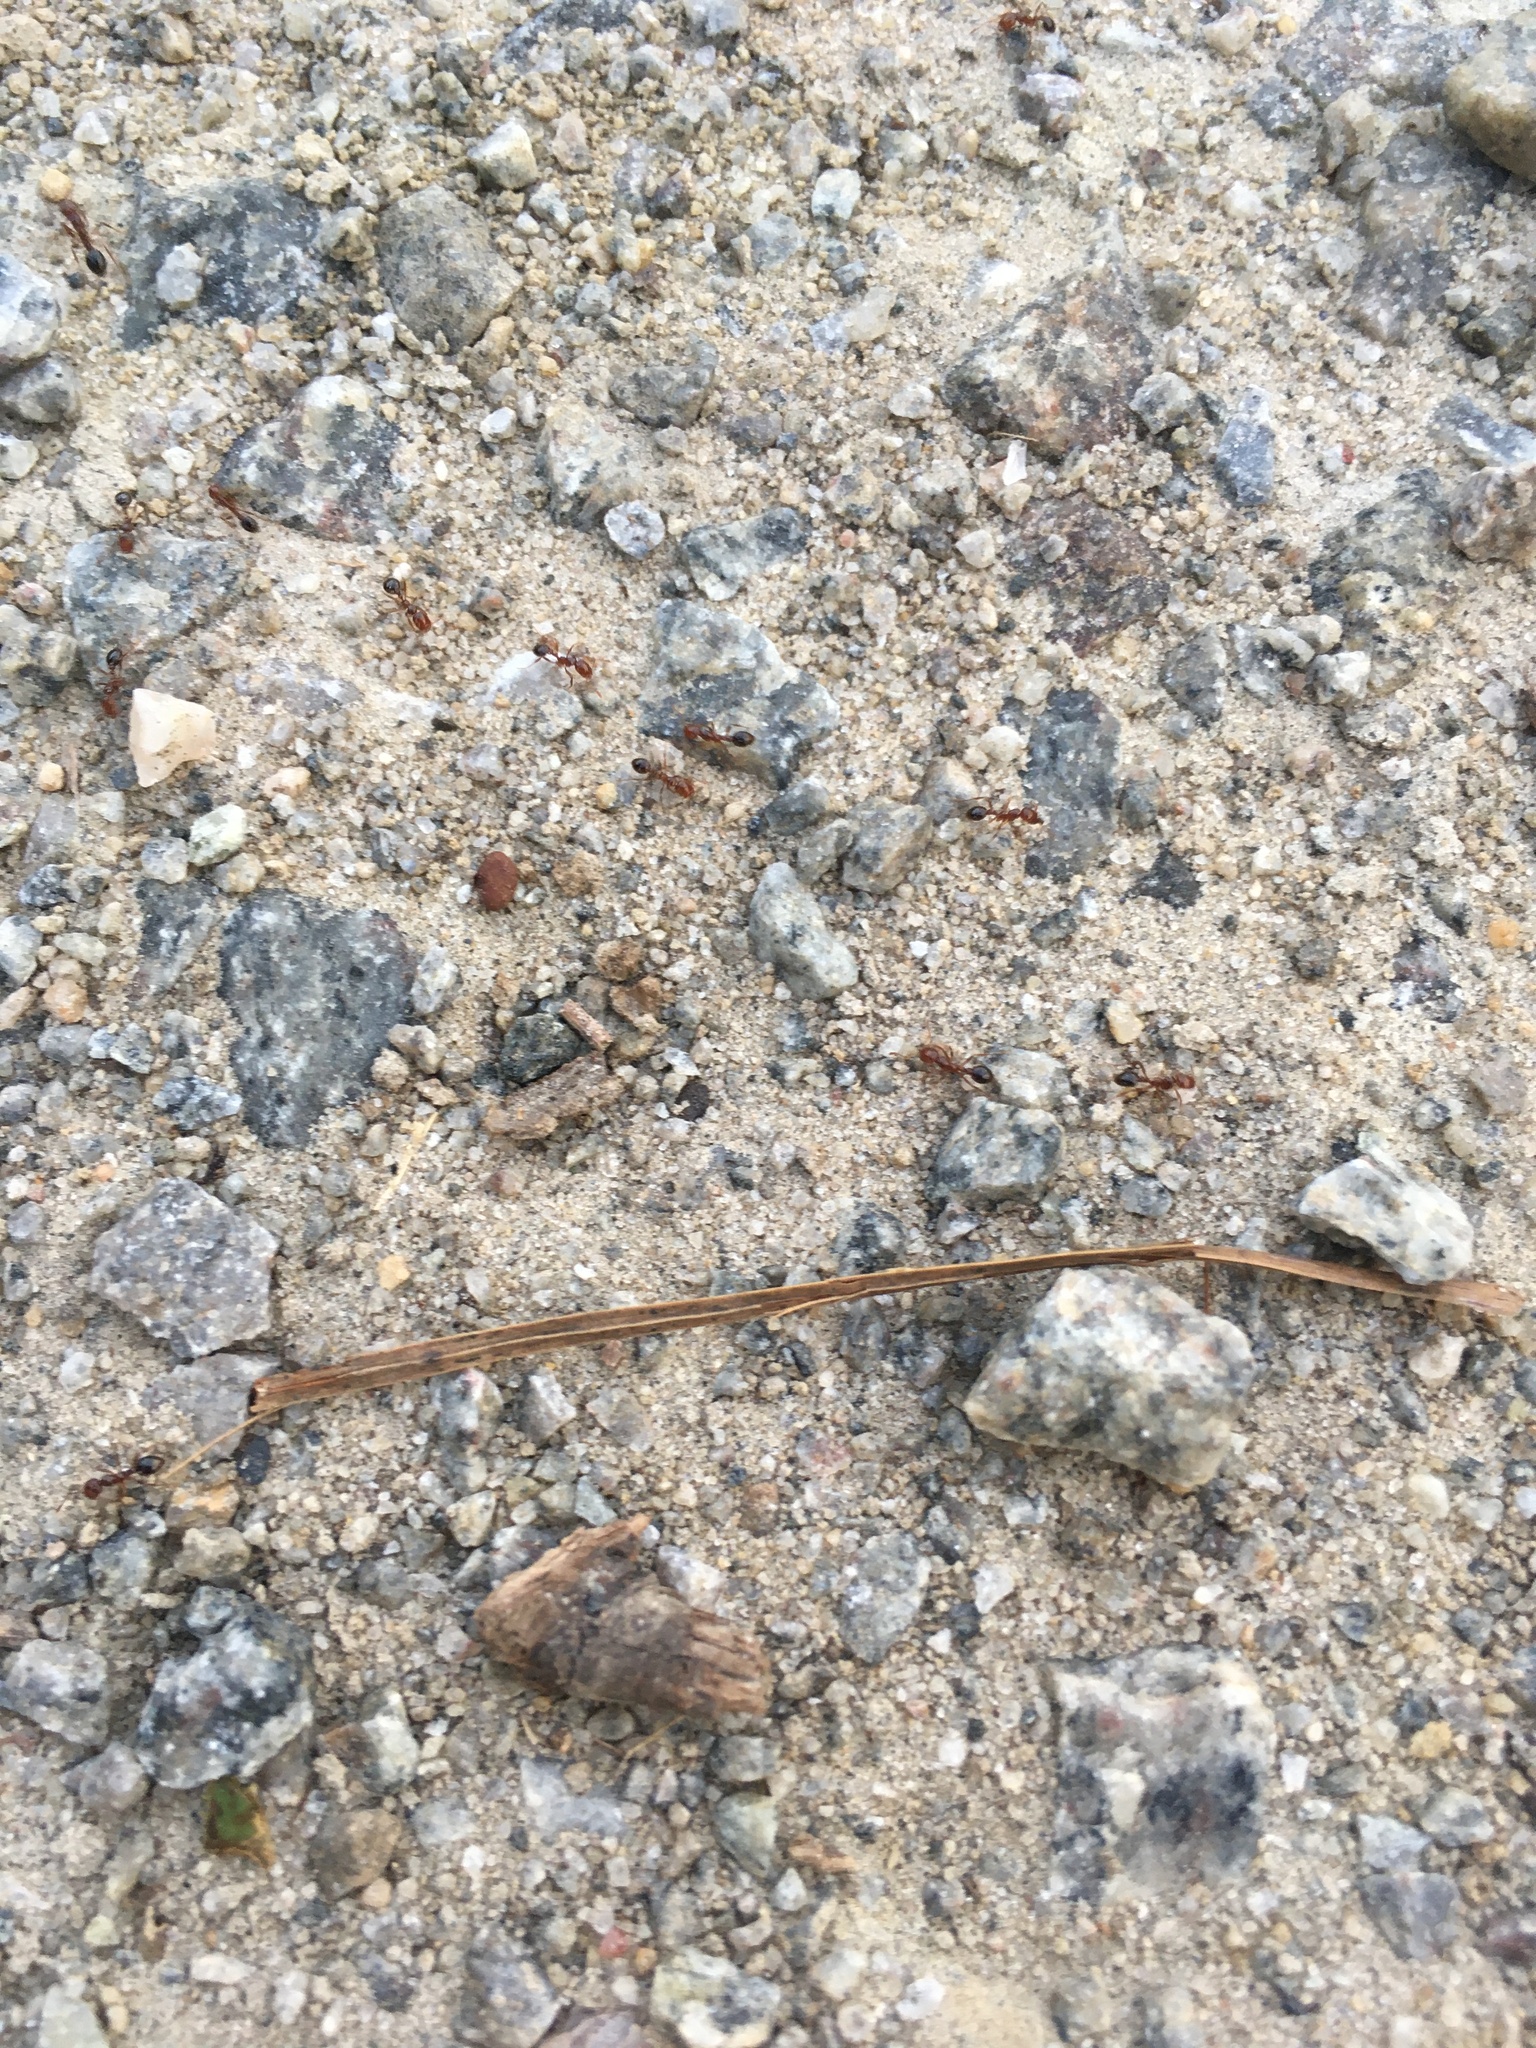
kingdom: Animalia
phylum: Arthropoda
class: Insecta
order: Hymenoptera
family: Formicidae
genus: Solenopsis
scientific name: Solenopsis invicta
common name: Red imported fire ant
